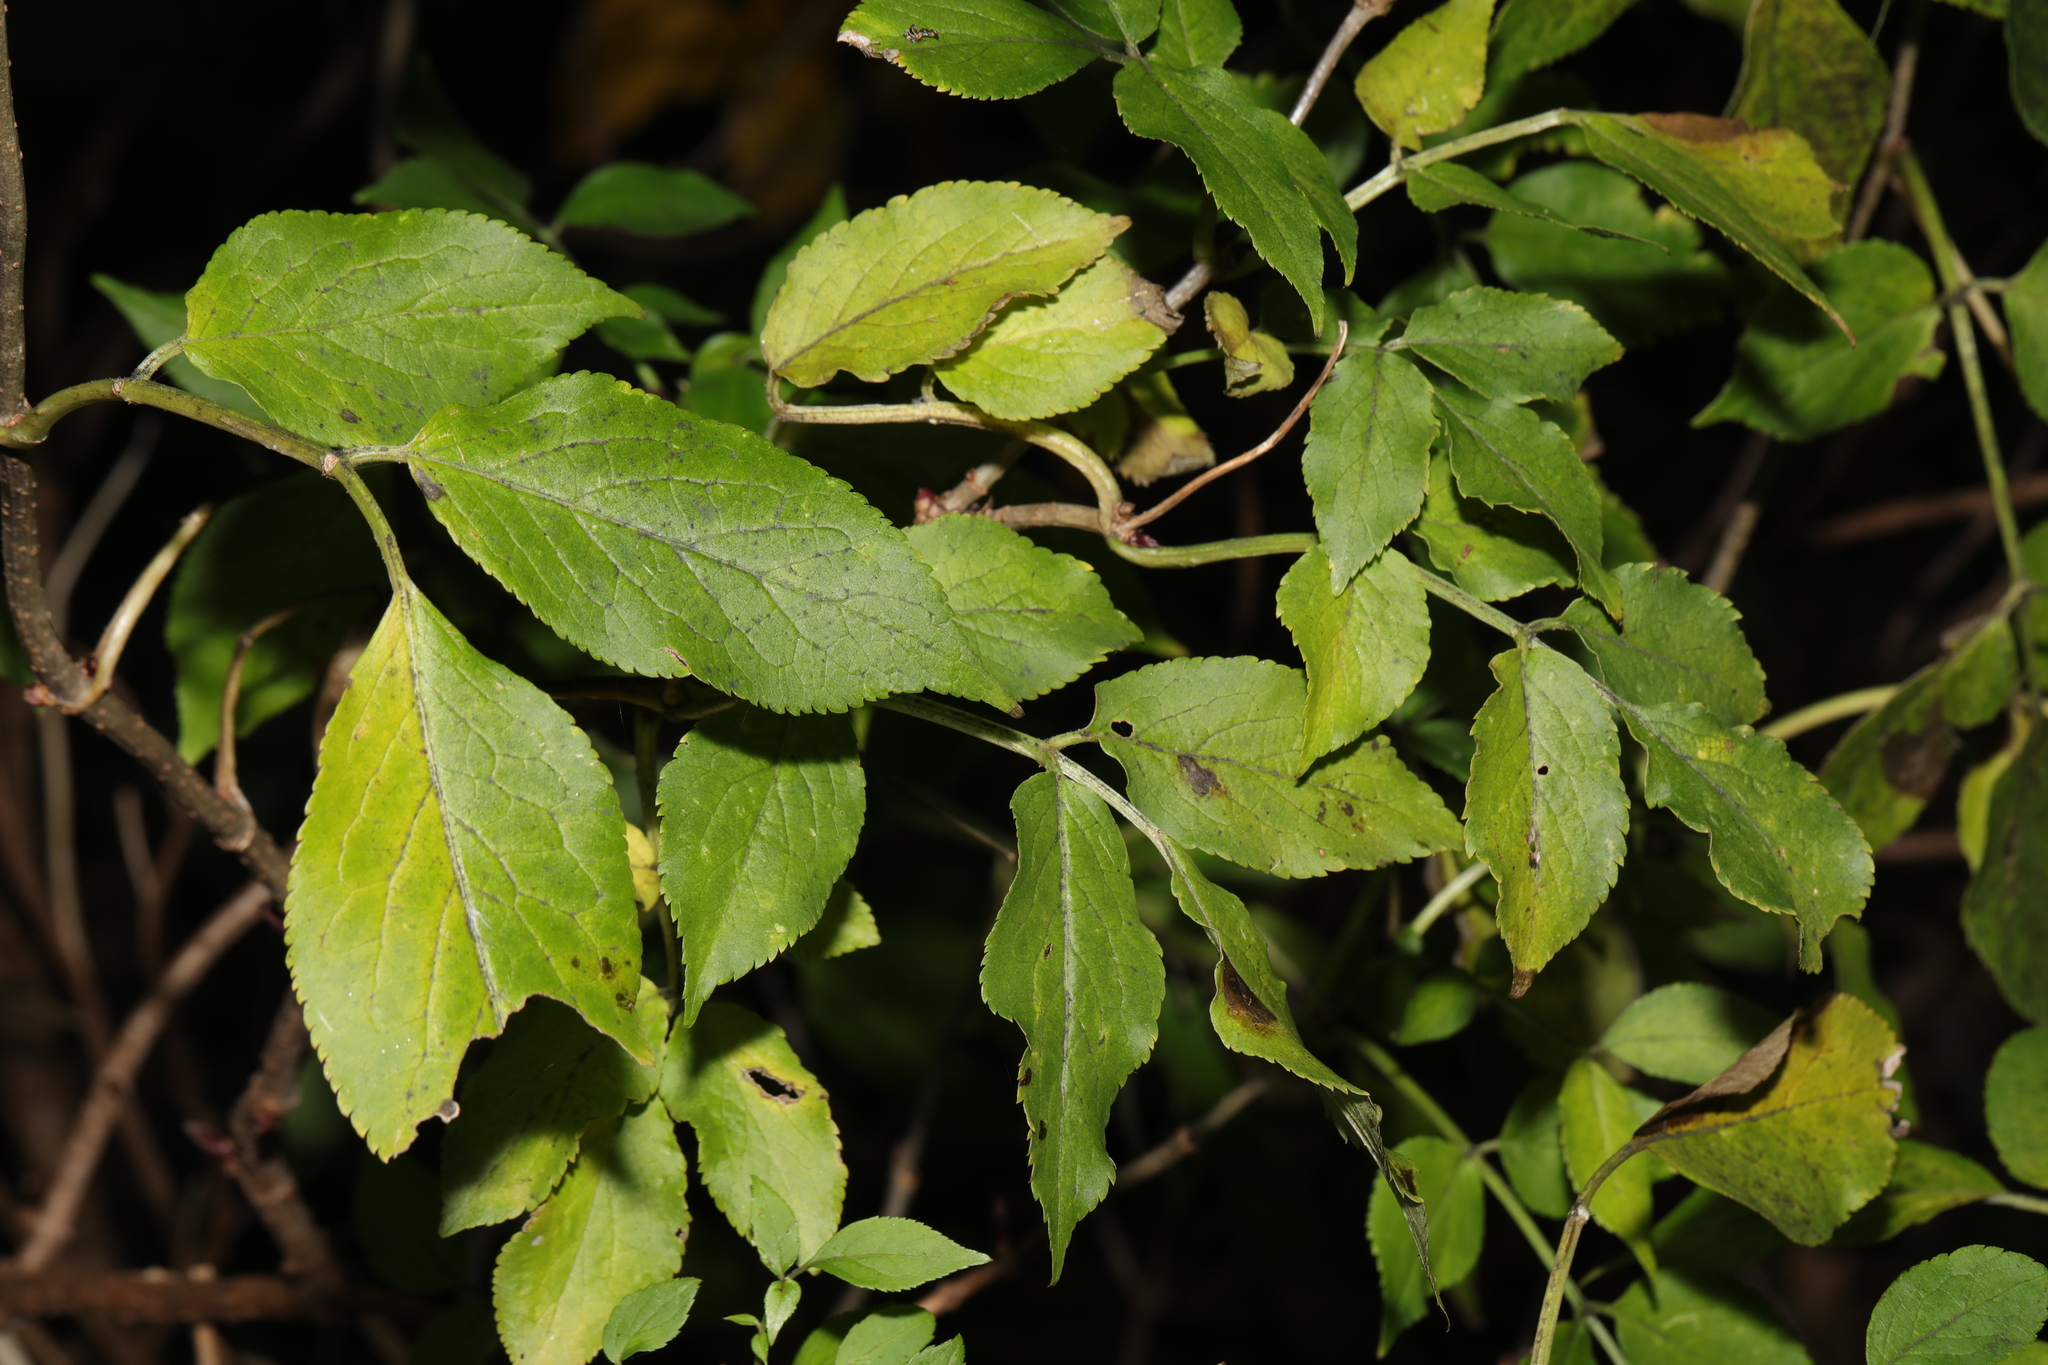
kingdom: Plantae
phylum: Tracheophyta
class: Magnoliopsida
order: Dipsacales
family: Viburnaceae
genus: Sambucus
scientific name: Sambucus nigra
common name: Elder
